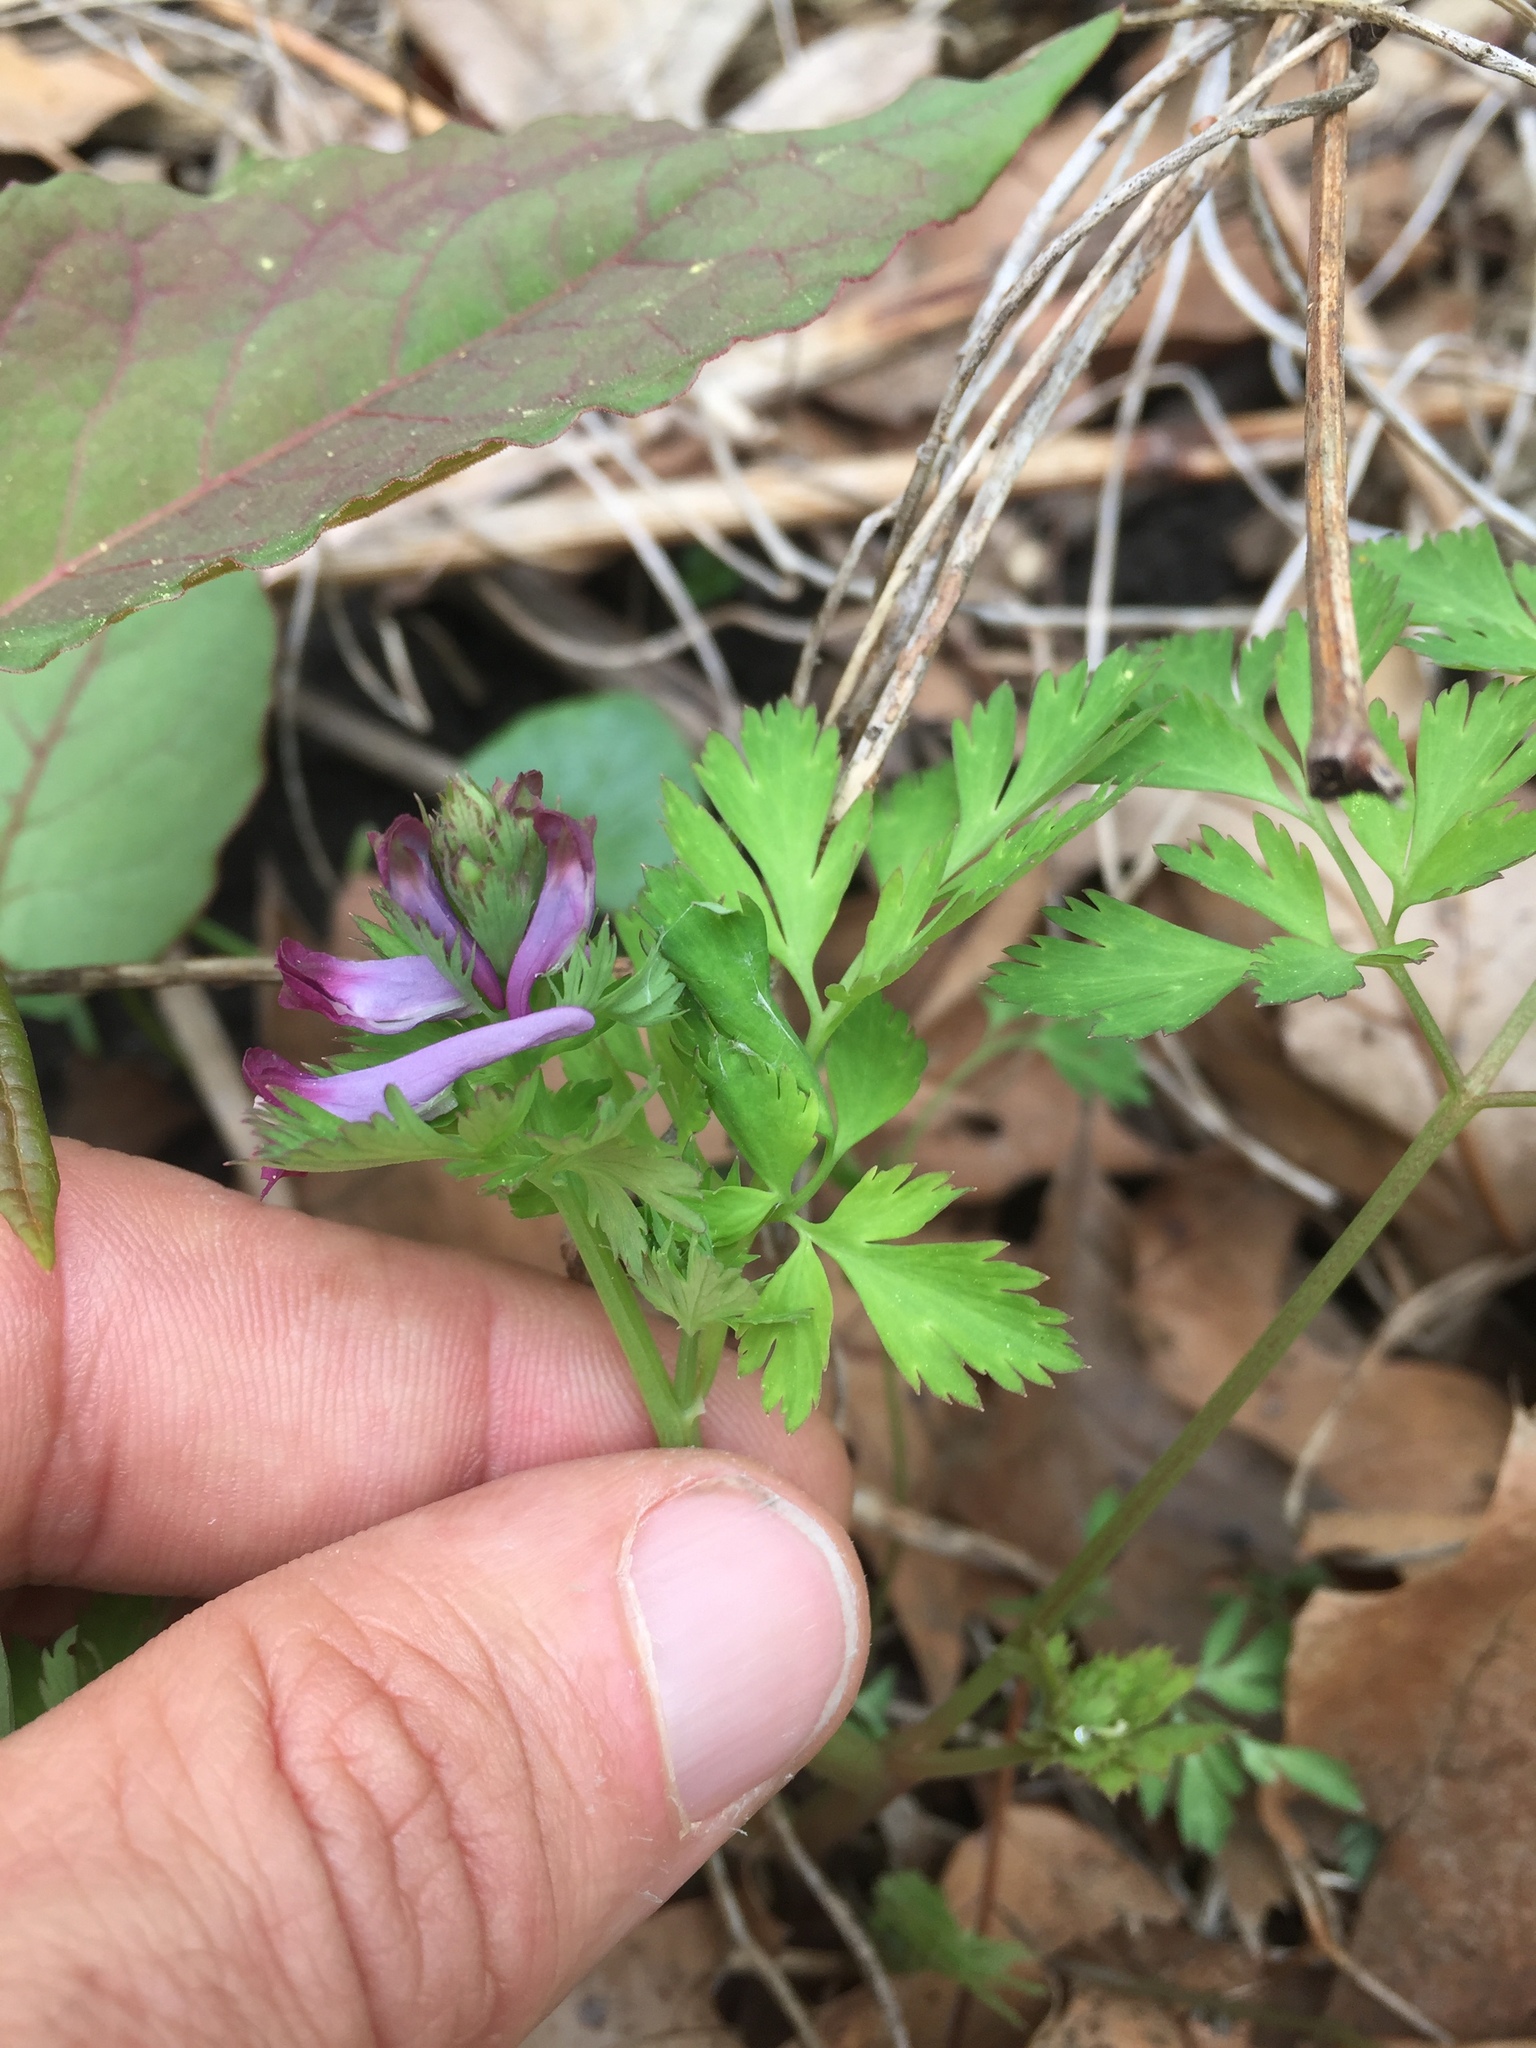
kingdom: Plantae
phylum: Tracheophyta
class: Magnoliopsida
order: Ranunculales
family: Papaveraceae
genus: Corydalis
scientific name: Corydalis incisa
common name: Incised fumewort
